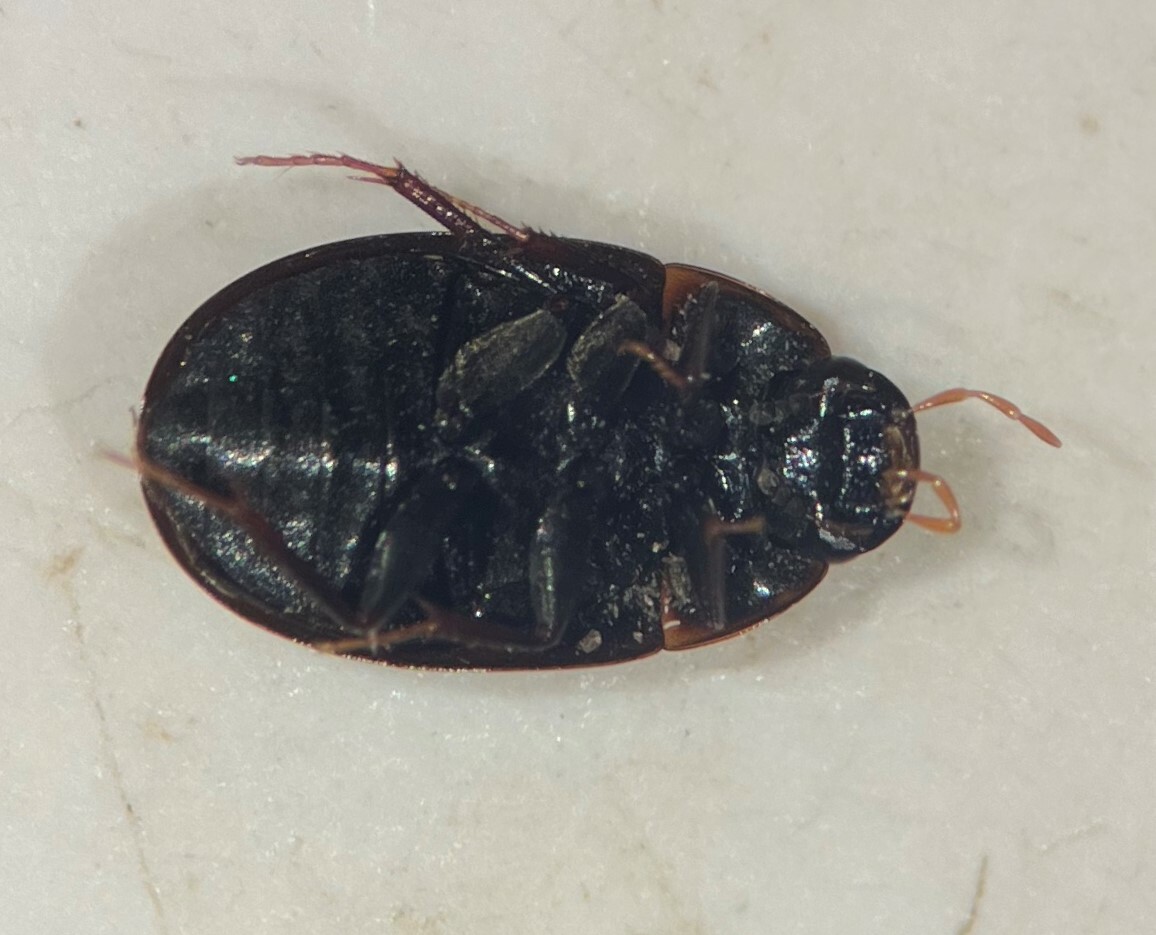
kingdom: Animalia
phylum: Arthropoda
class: Insecta
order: Coleoptera
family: Hydrophilidae
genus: Cymbiodyta
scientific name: Cymbiodyta vindicata
